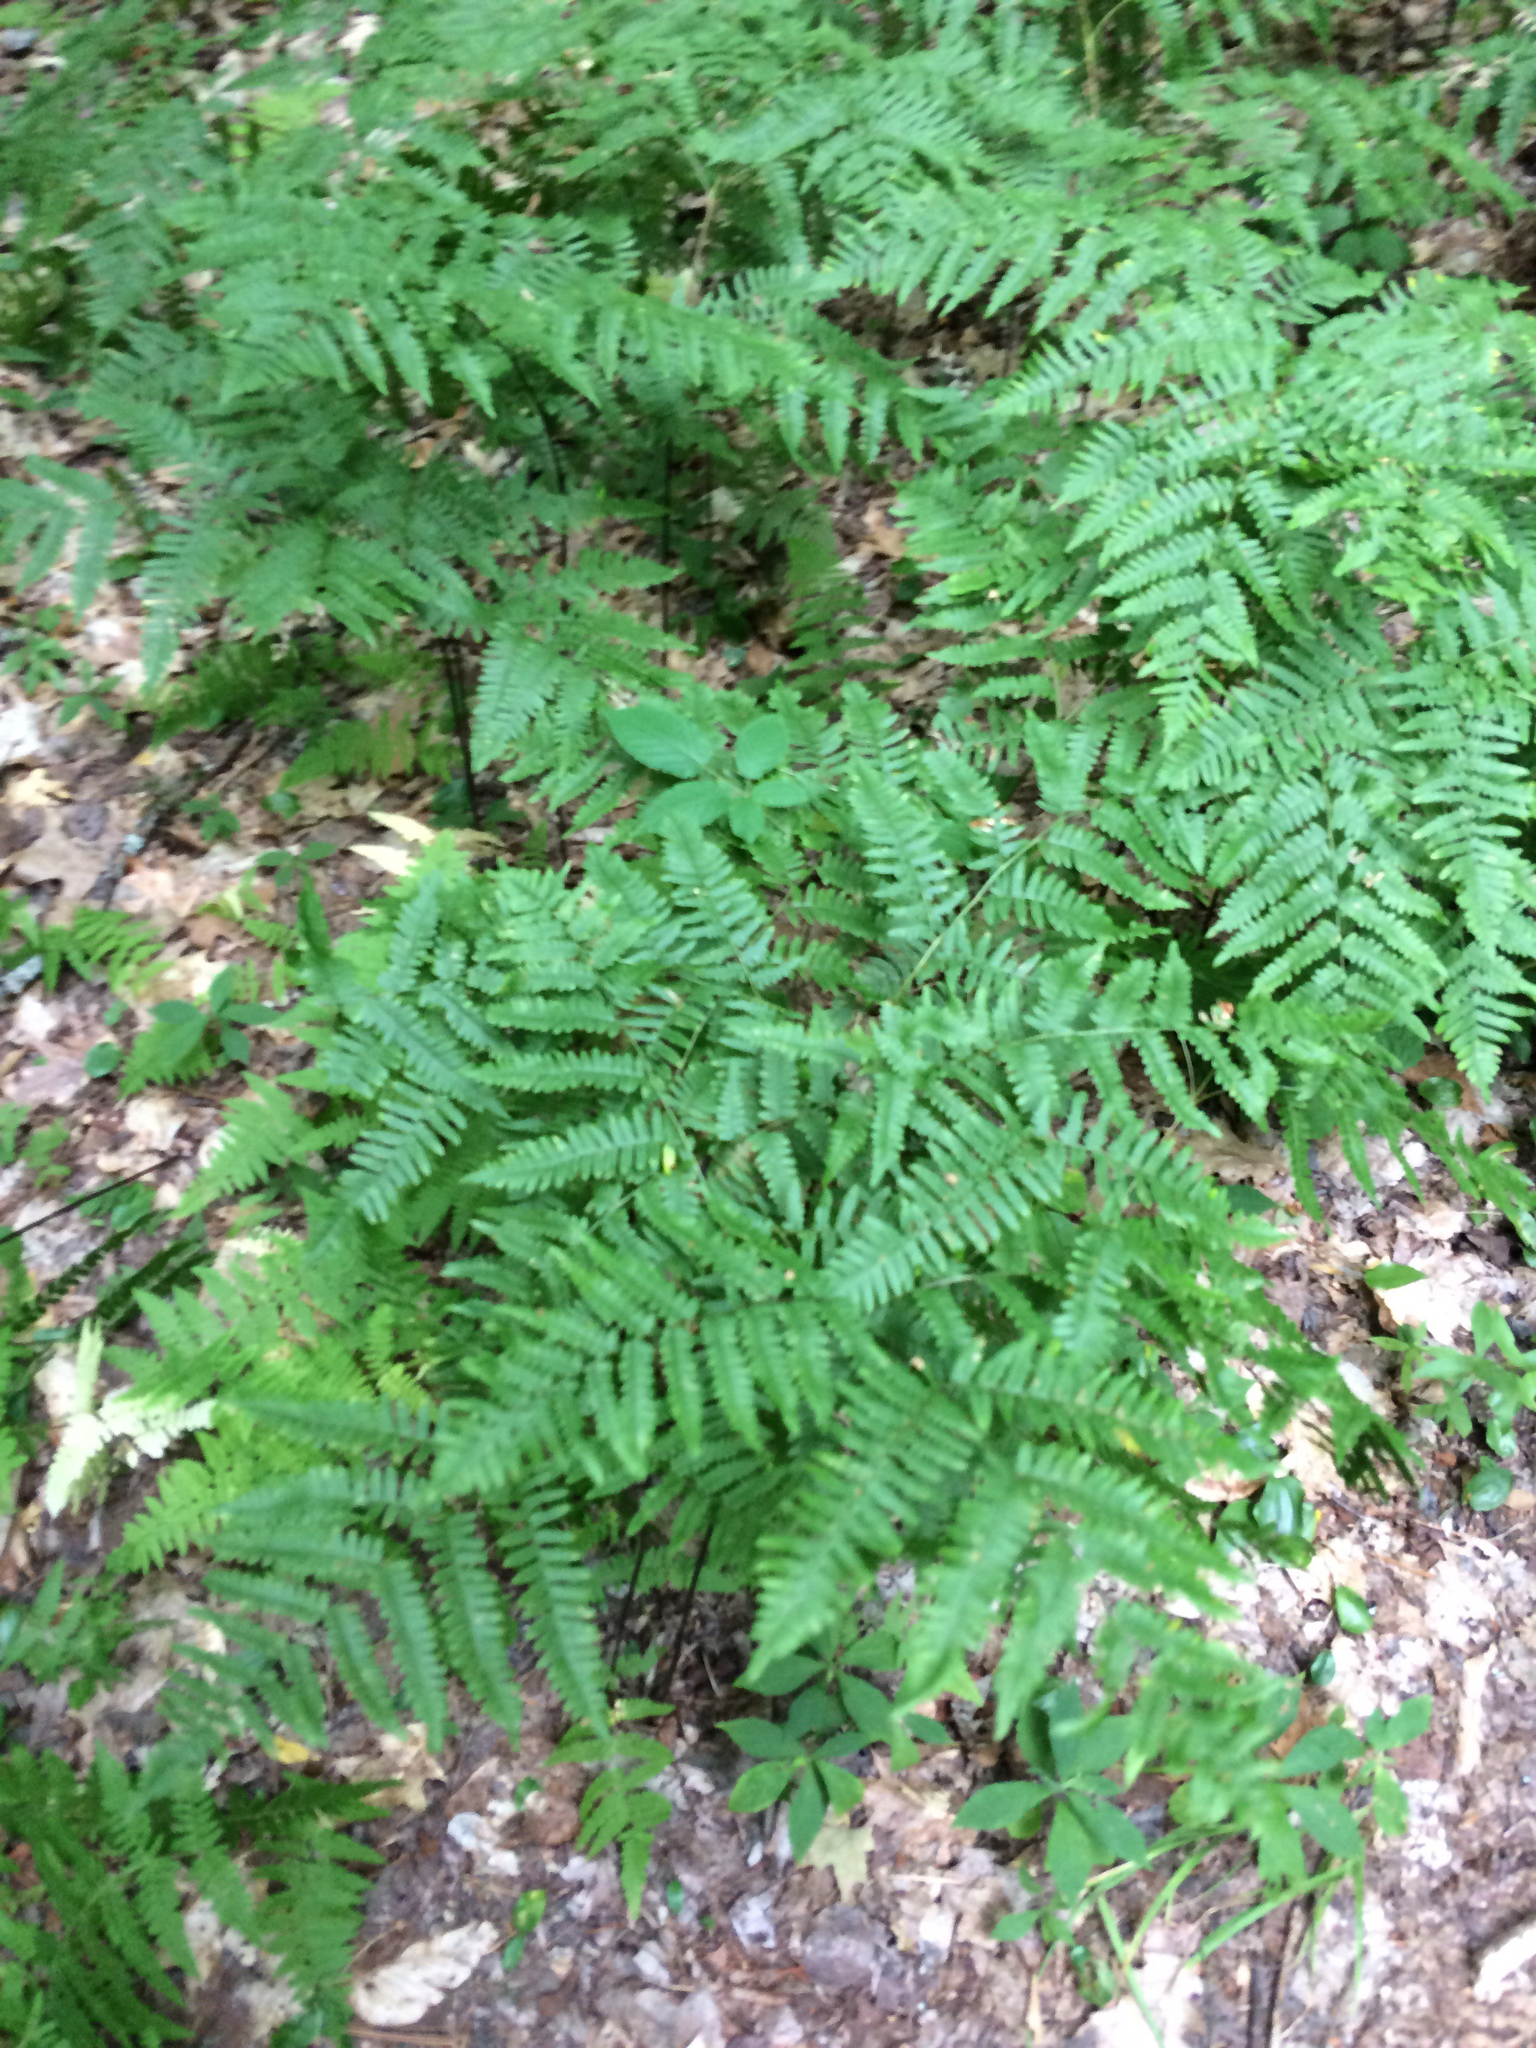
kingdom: Plantae
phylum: Tracheophyta
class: Polypodiopsida
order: Polypodiales
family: Dennstaedtiaceae
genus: Pteridium
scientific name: Pteridium aquilinum
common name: Bracken
